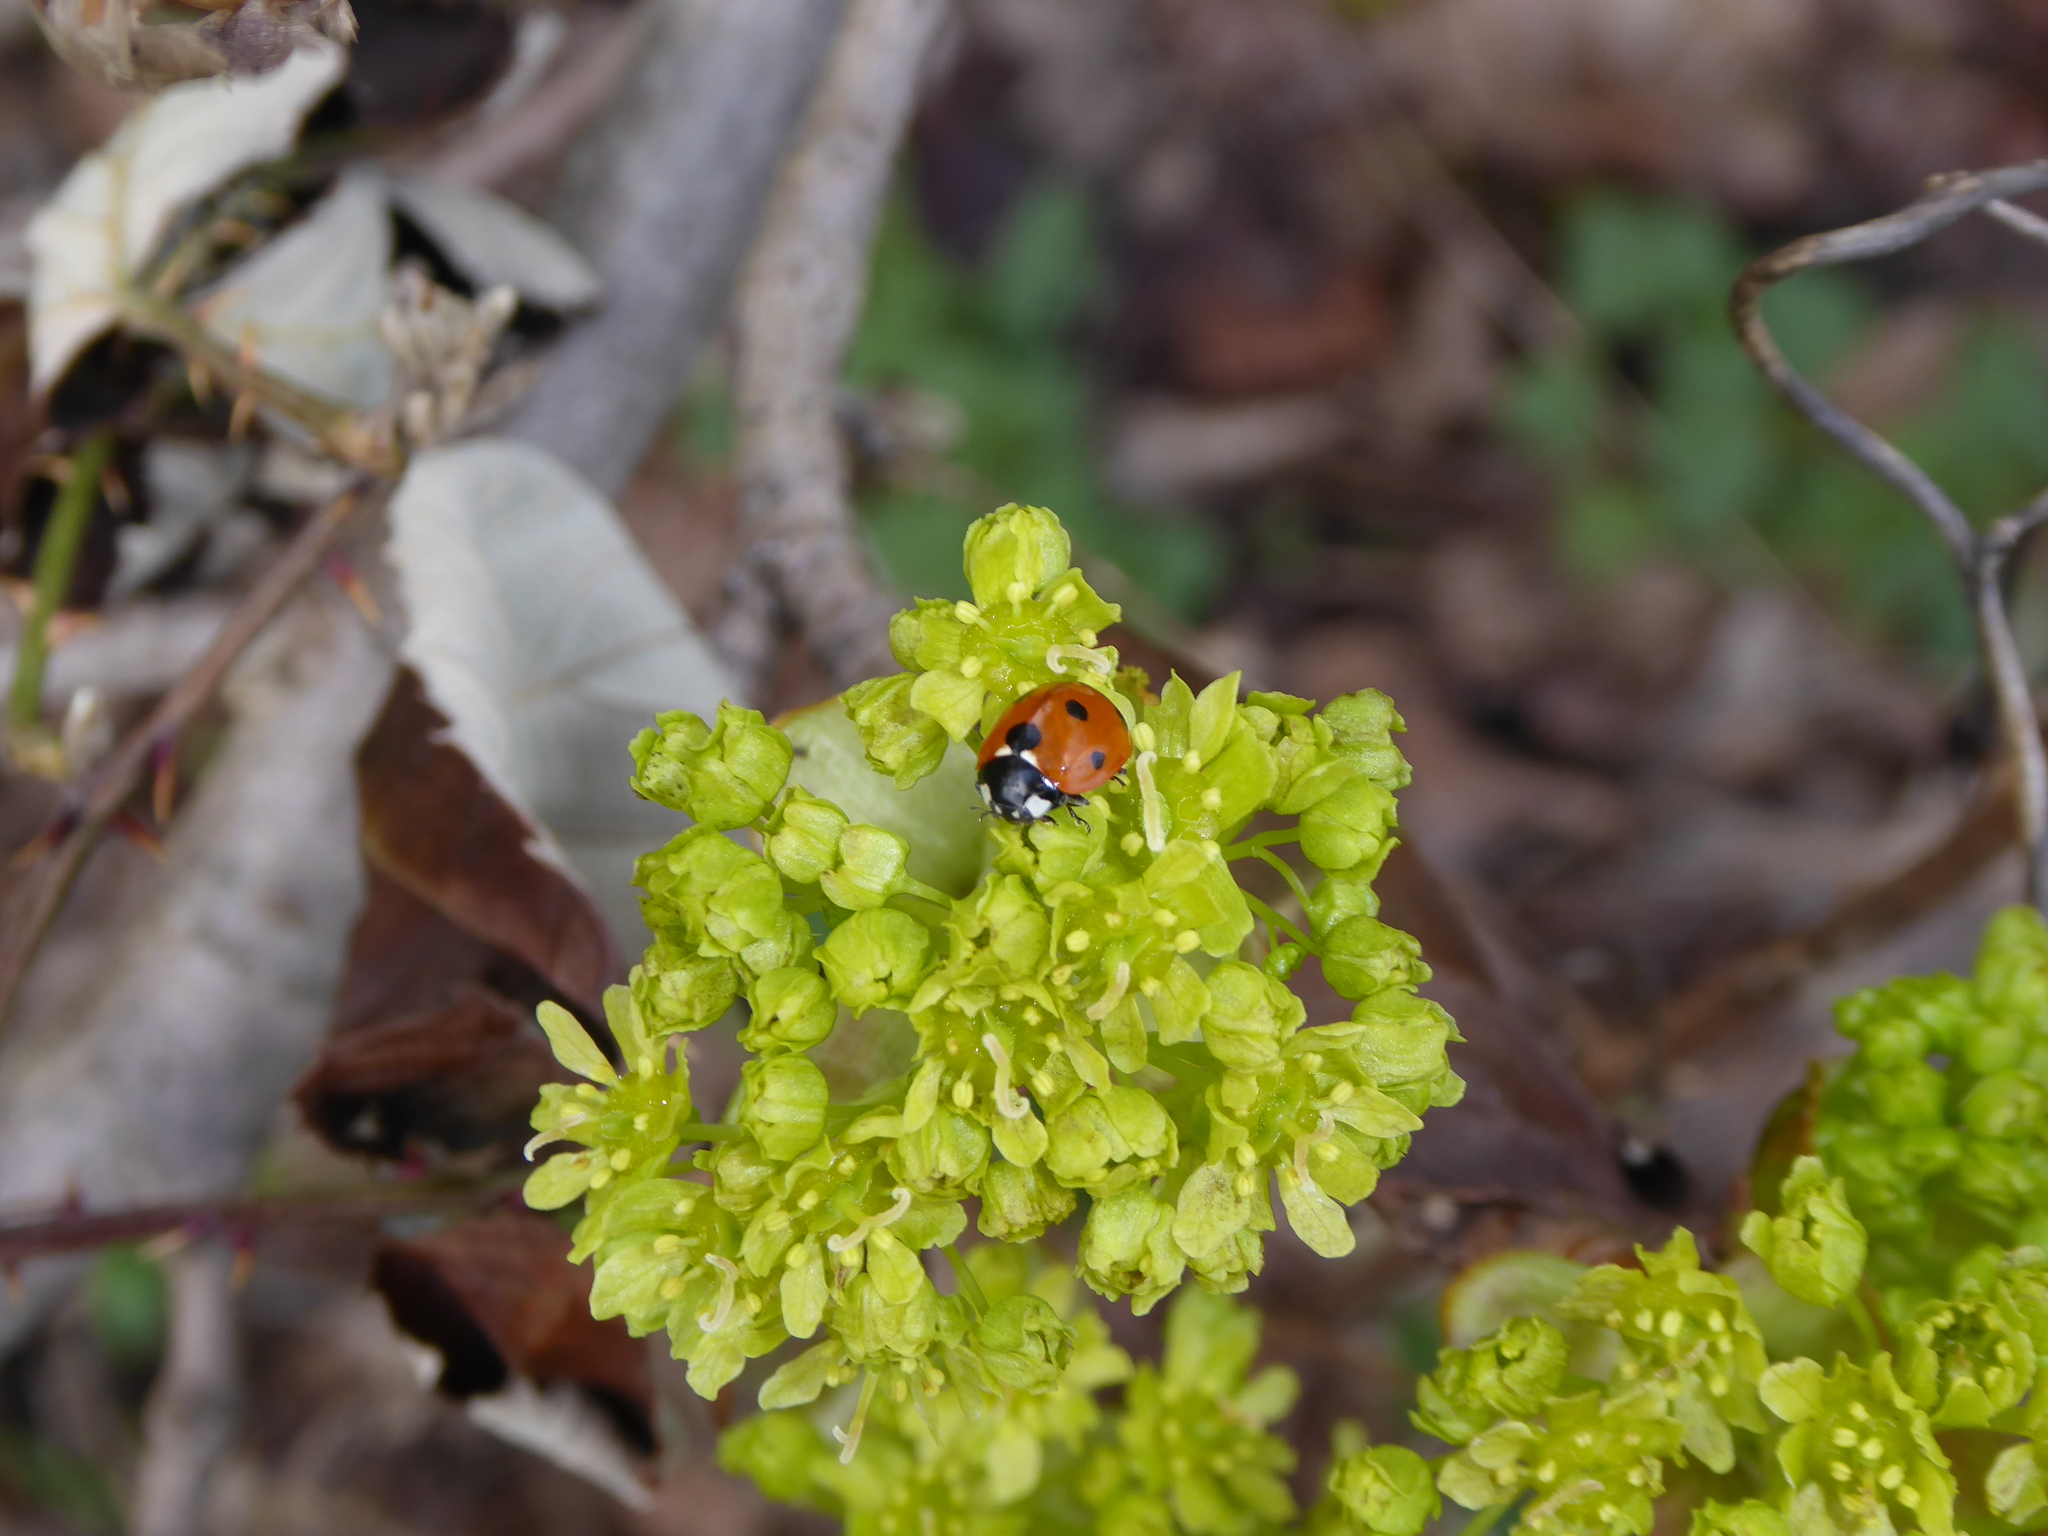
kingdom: Animalia
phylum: Arthropoda
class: Insecta
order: Coleoptera
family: Coccinellidae
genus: Coccinella
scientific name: Coccinella septempunctata
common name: Sevenspotted lady beetle
